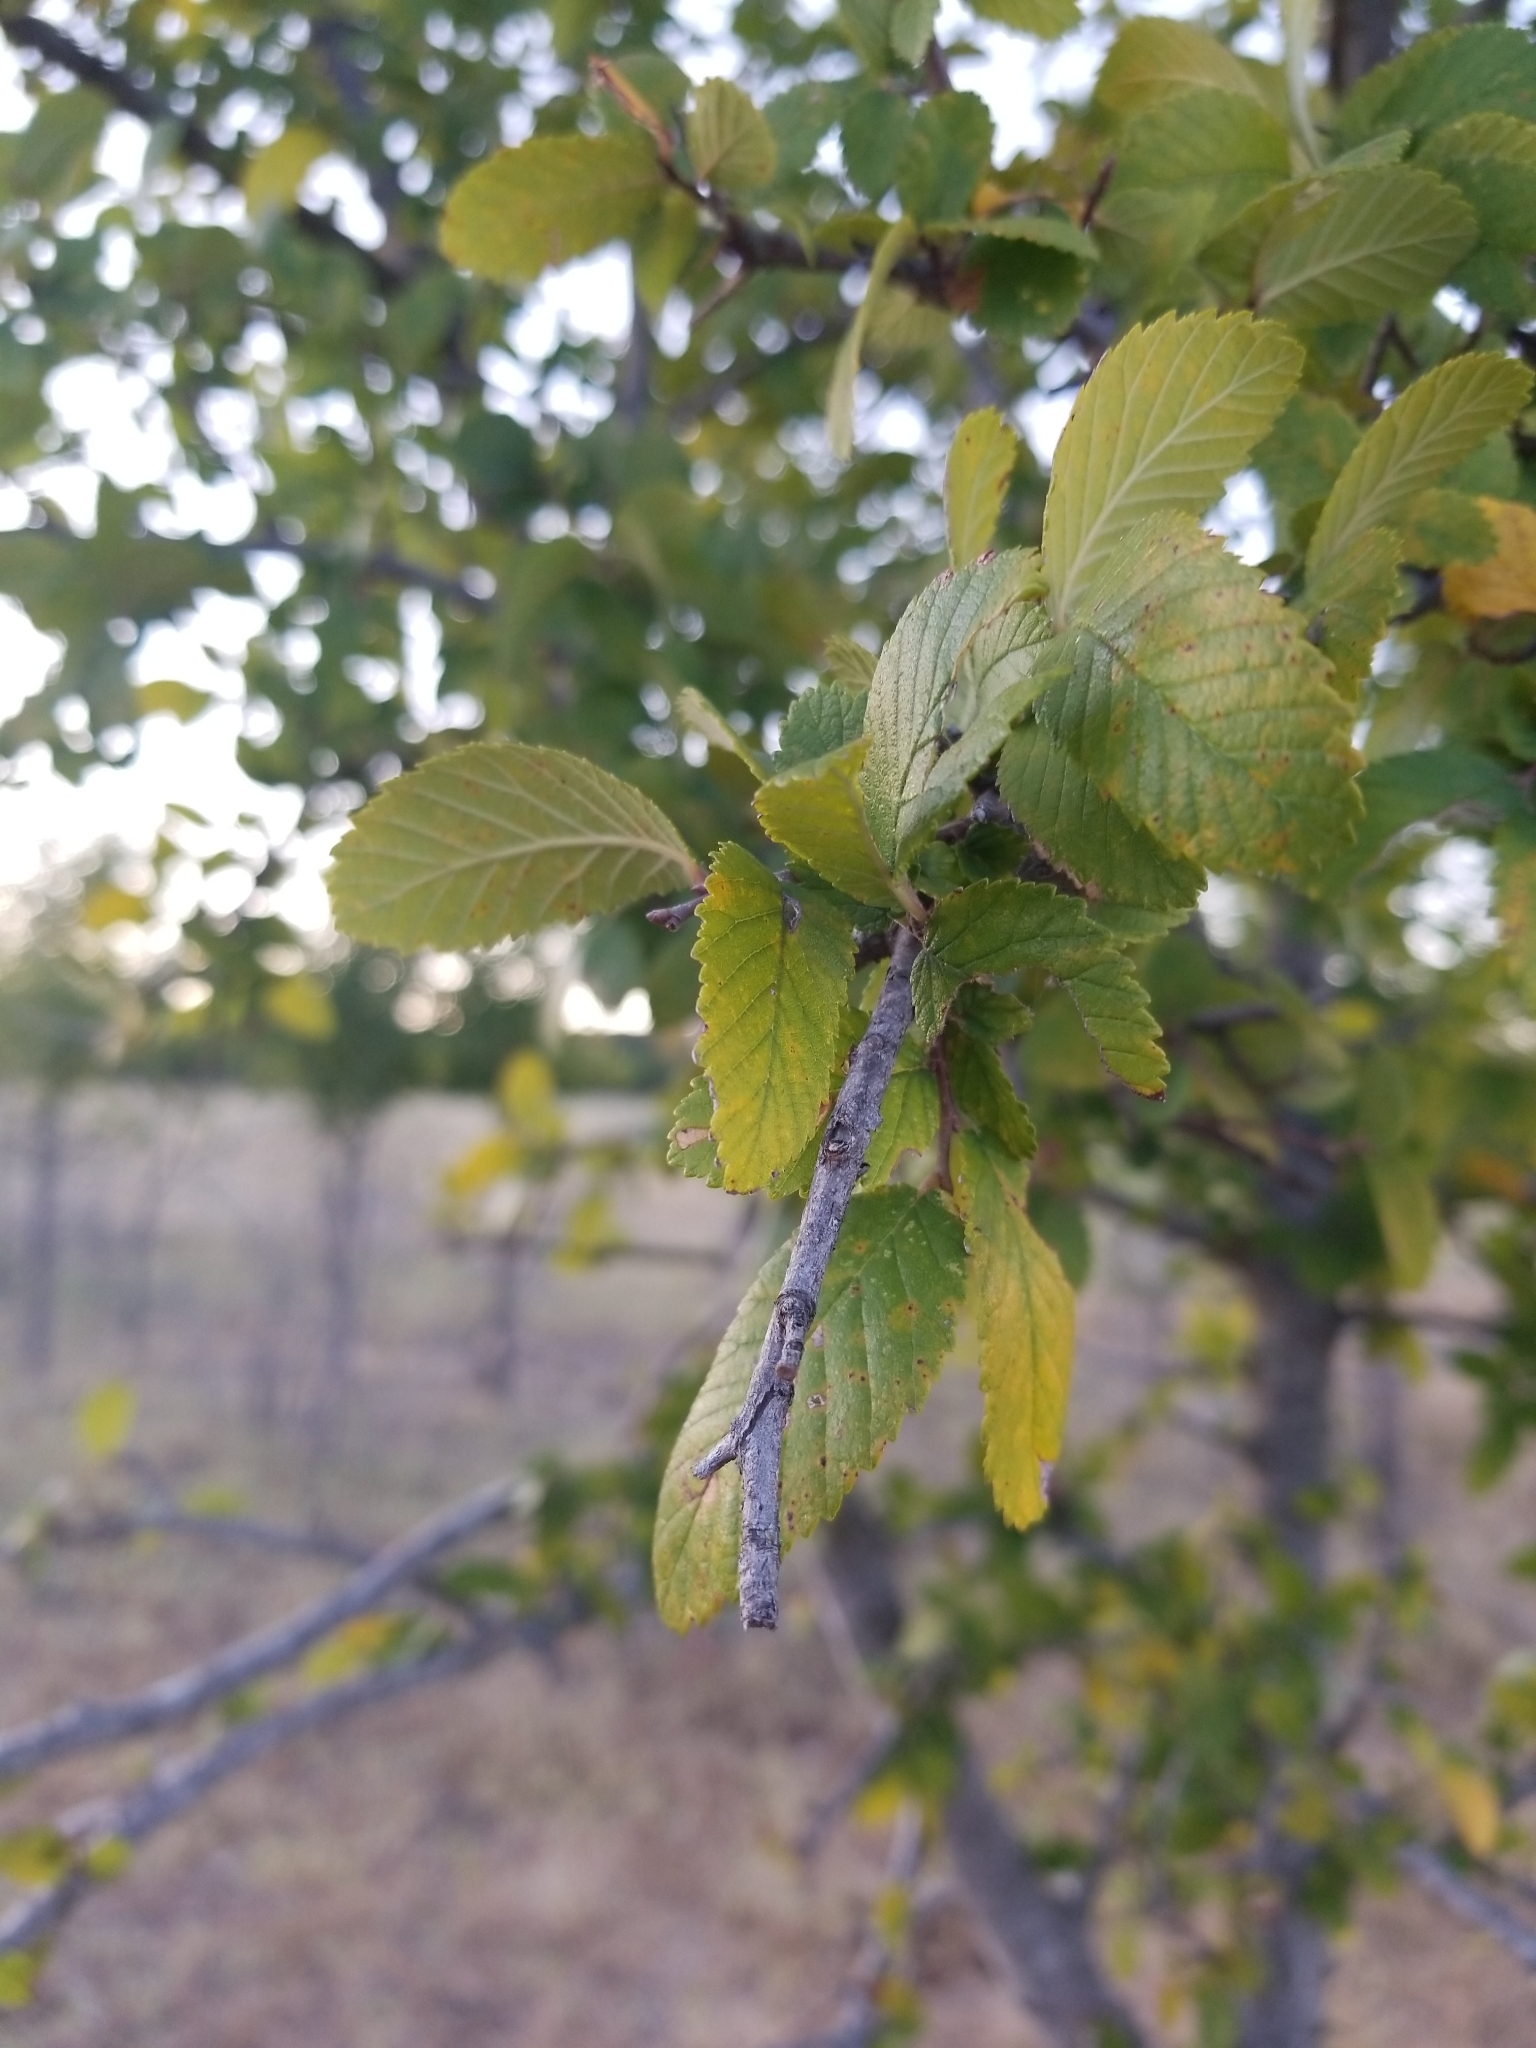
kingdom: Plantae
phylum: Tracheophyta
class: Magnoliopsida
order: Rosales
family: Ulmaceae
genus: Ulmus
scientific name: Ulmus crassifolia
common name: Basket elm
